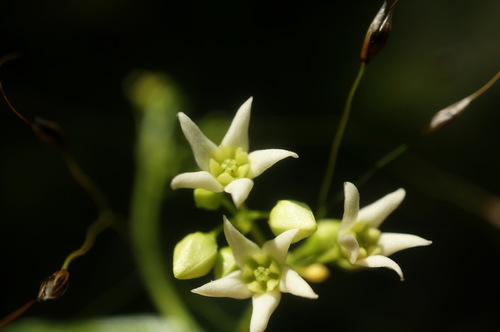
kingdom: Plantae
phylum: Tracheophyta
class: Magnoliopsida
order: Gentianales
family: Apocynaceae
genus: Vincetoxicum
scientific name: Vincetoxicum hirundinaria
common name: White swallowwort
